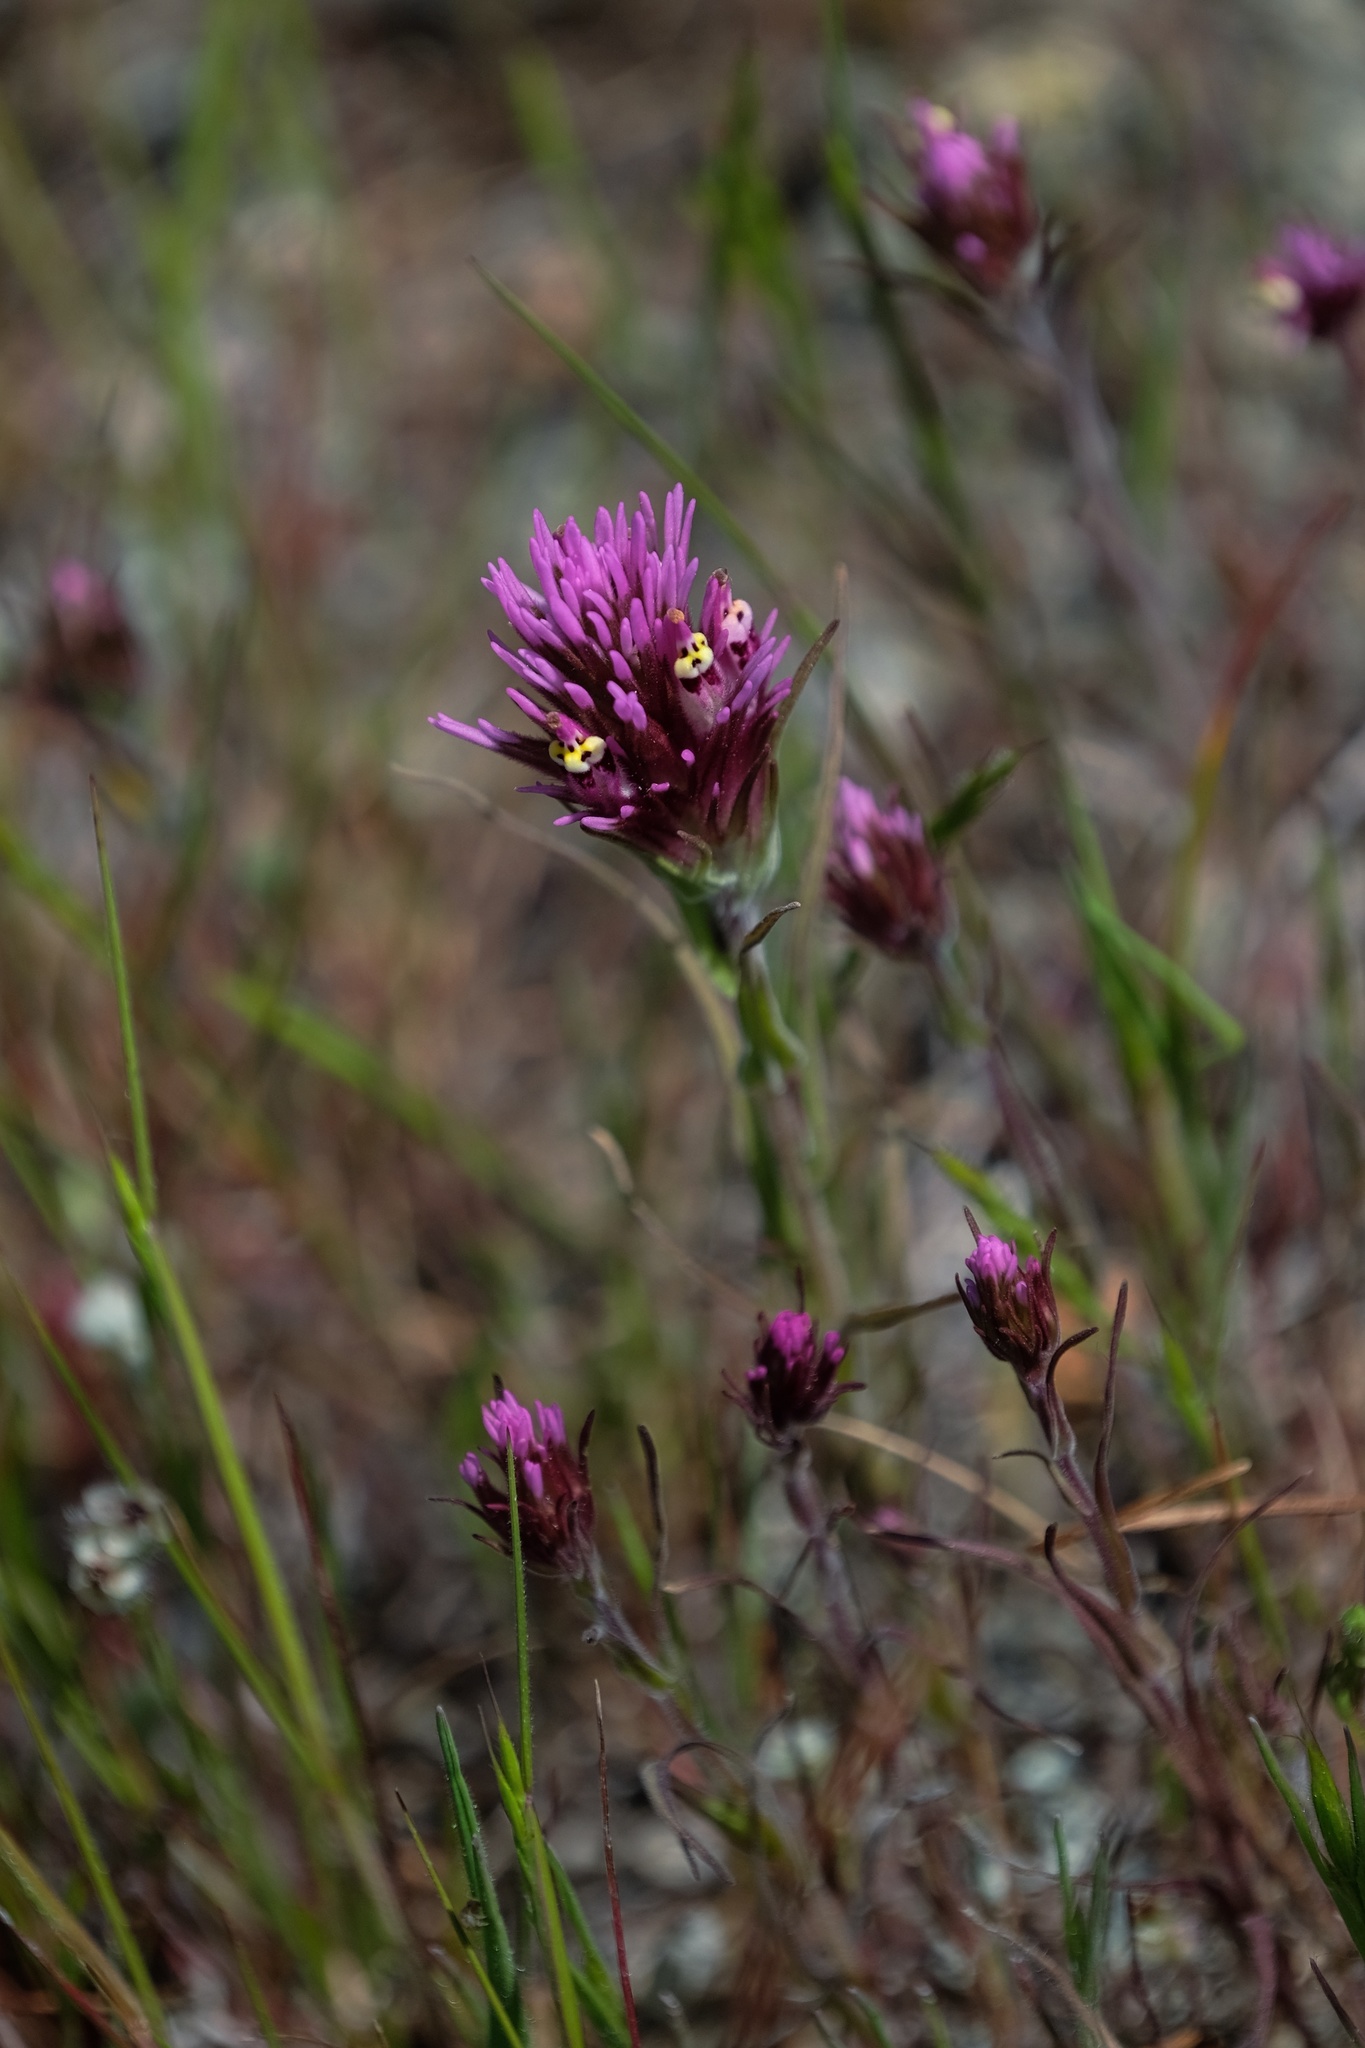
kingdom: Plantae
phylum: Tracheophyta
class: Magnoliopsida
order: Lamiales
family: Orobanchaceae
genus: Castilleja
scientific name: Castilleja densiflora
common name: Dense-flower indian paintbrush
